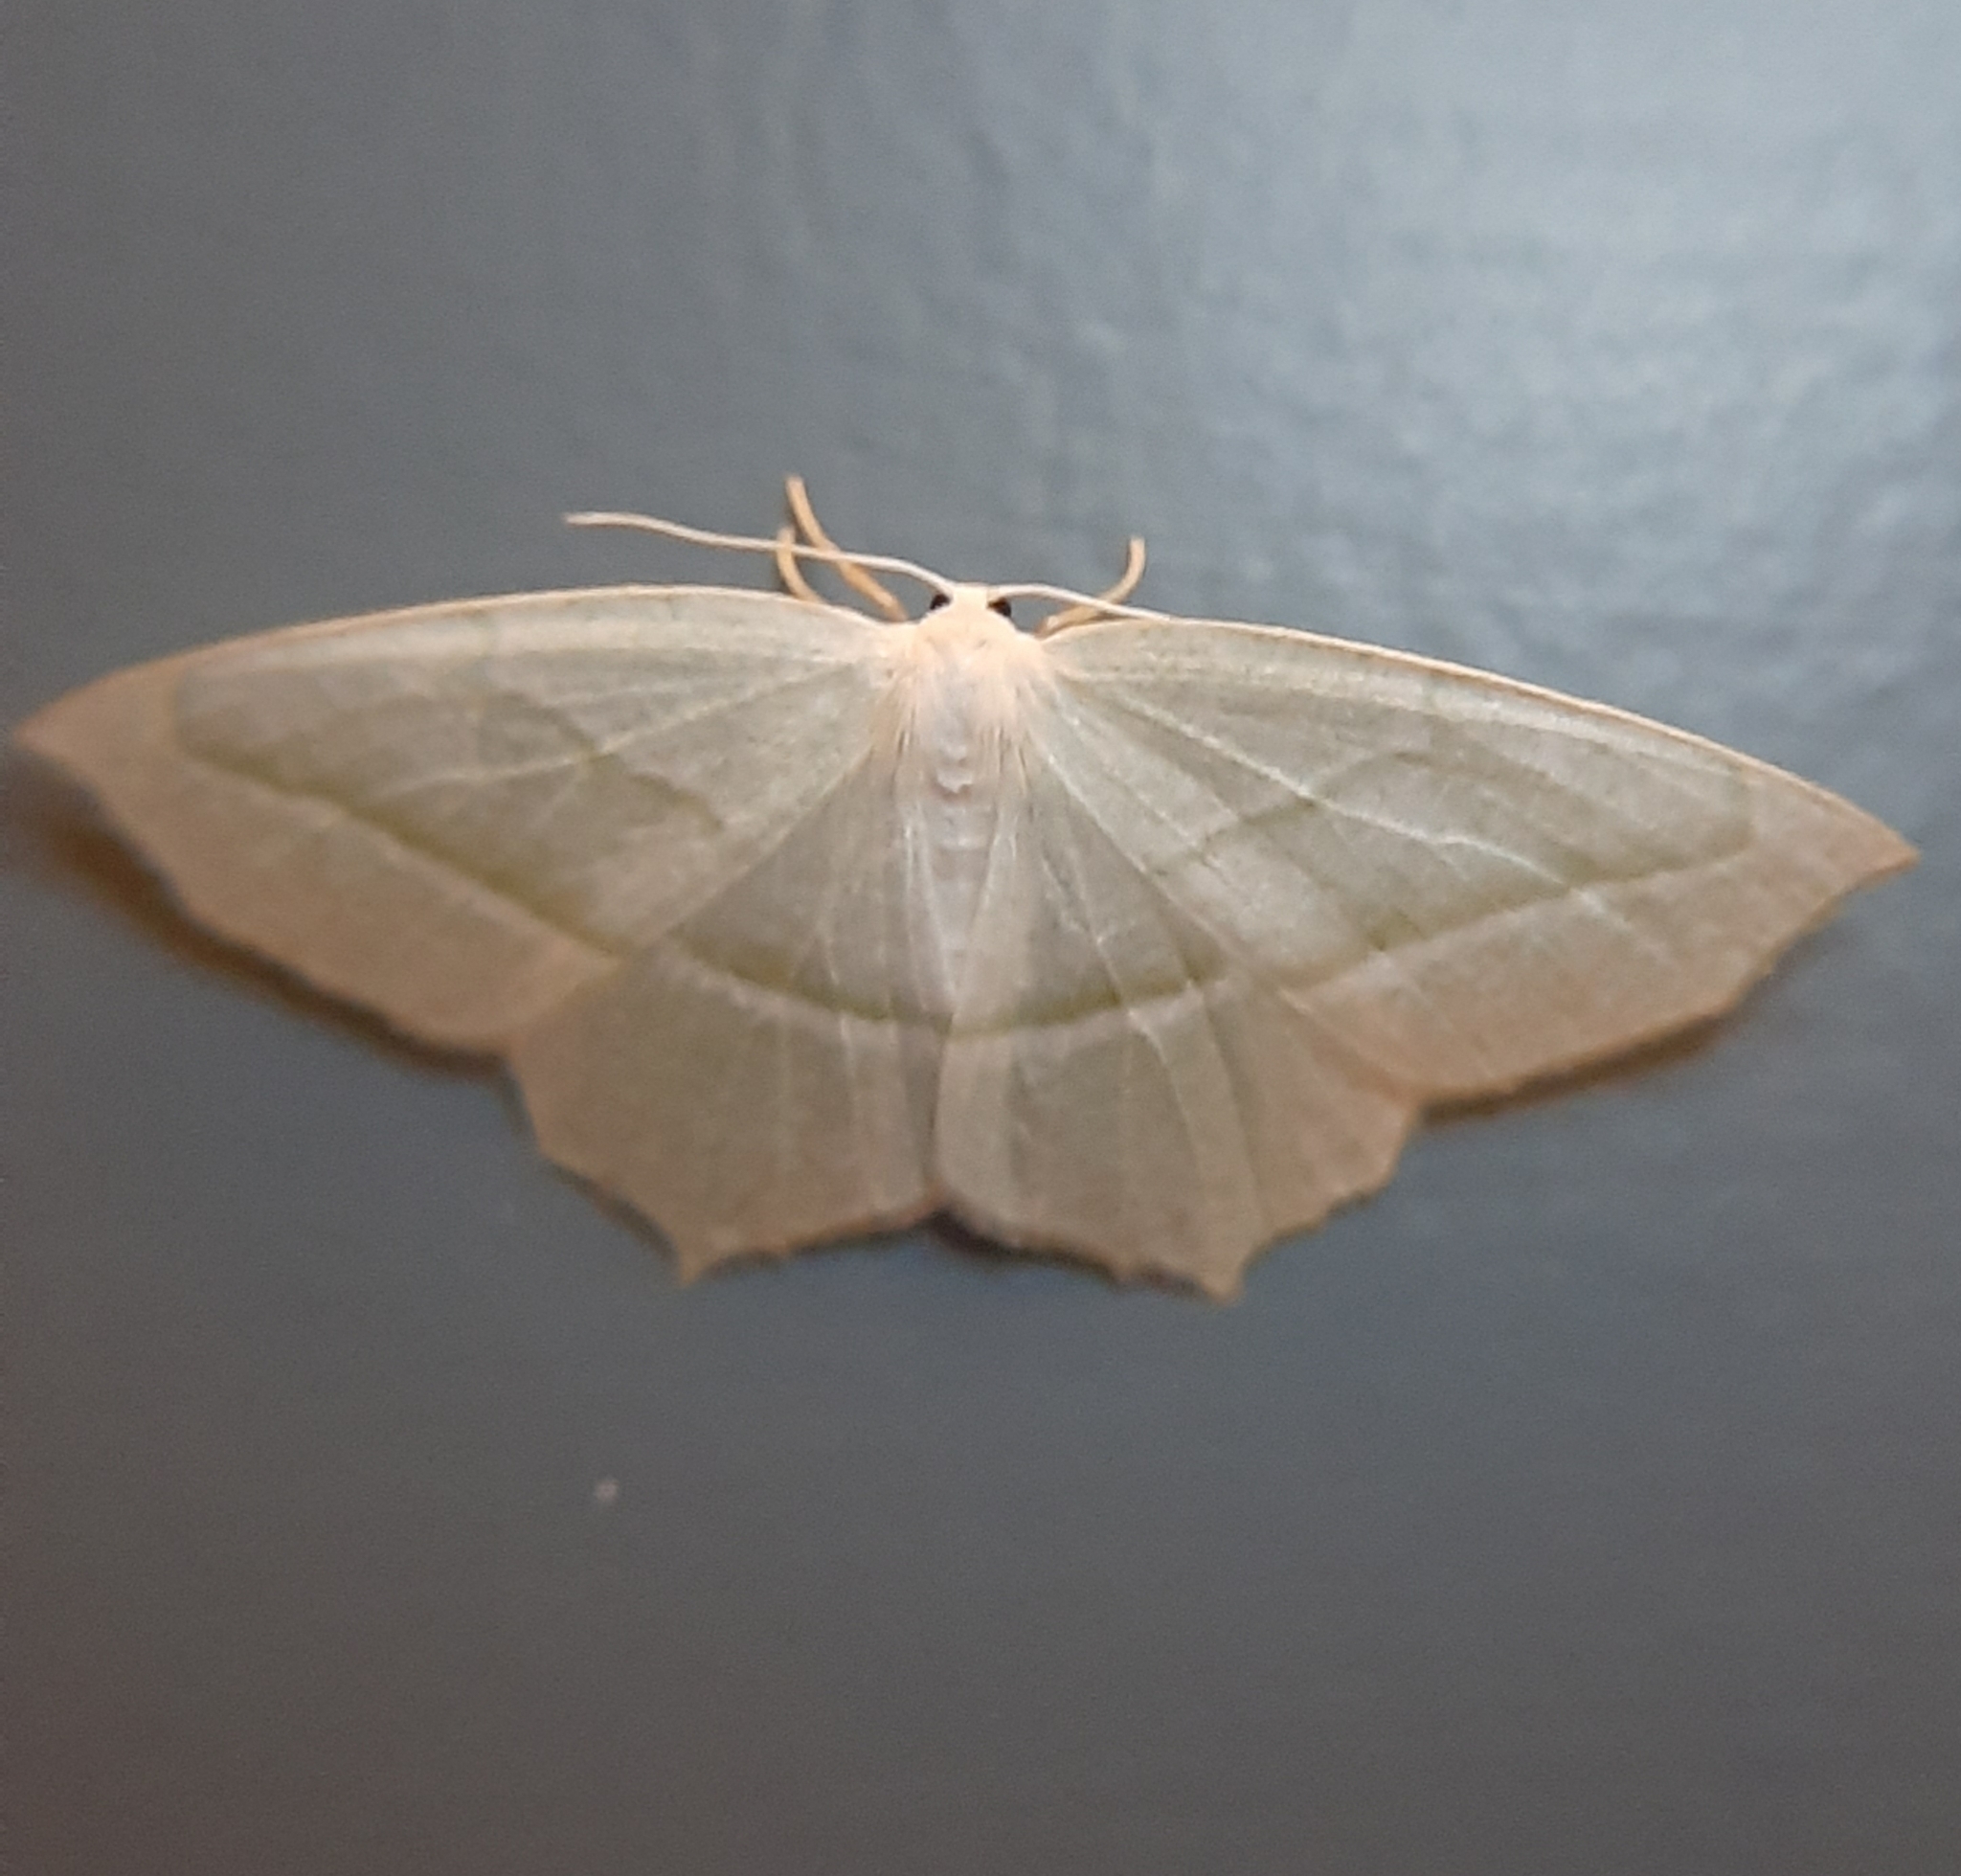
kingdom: Animalia
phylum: Arthropoda
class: Insecta
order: Lepidoptera
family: Geometridae
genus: Campaea
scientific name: Campaea perlata
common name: Fringed looper
